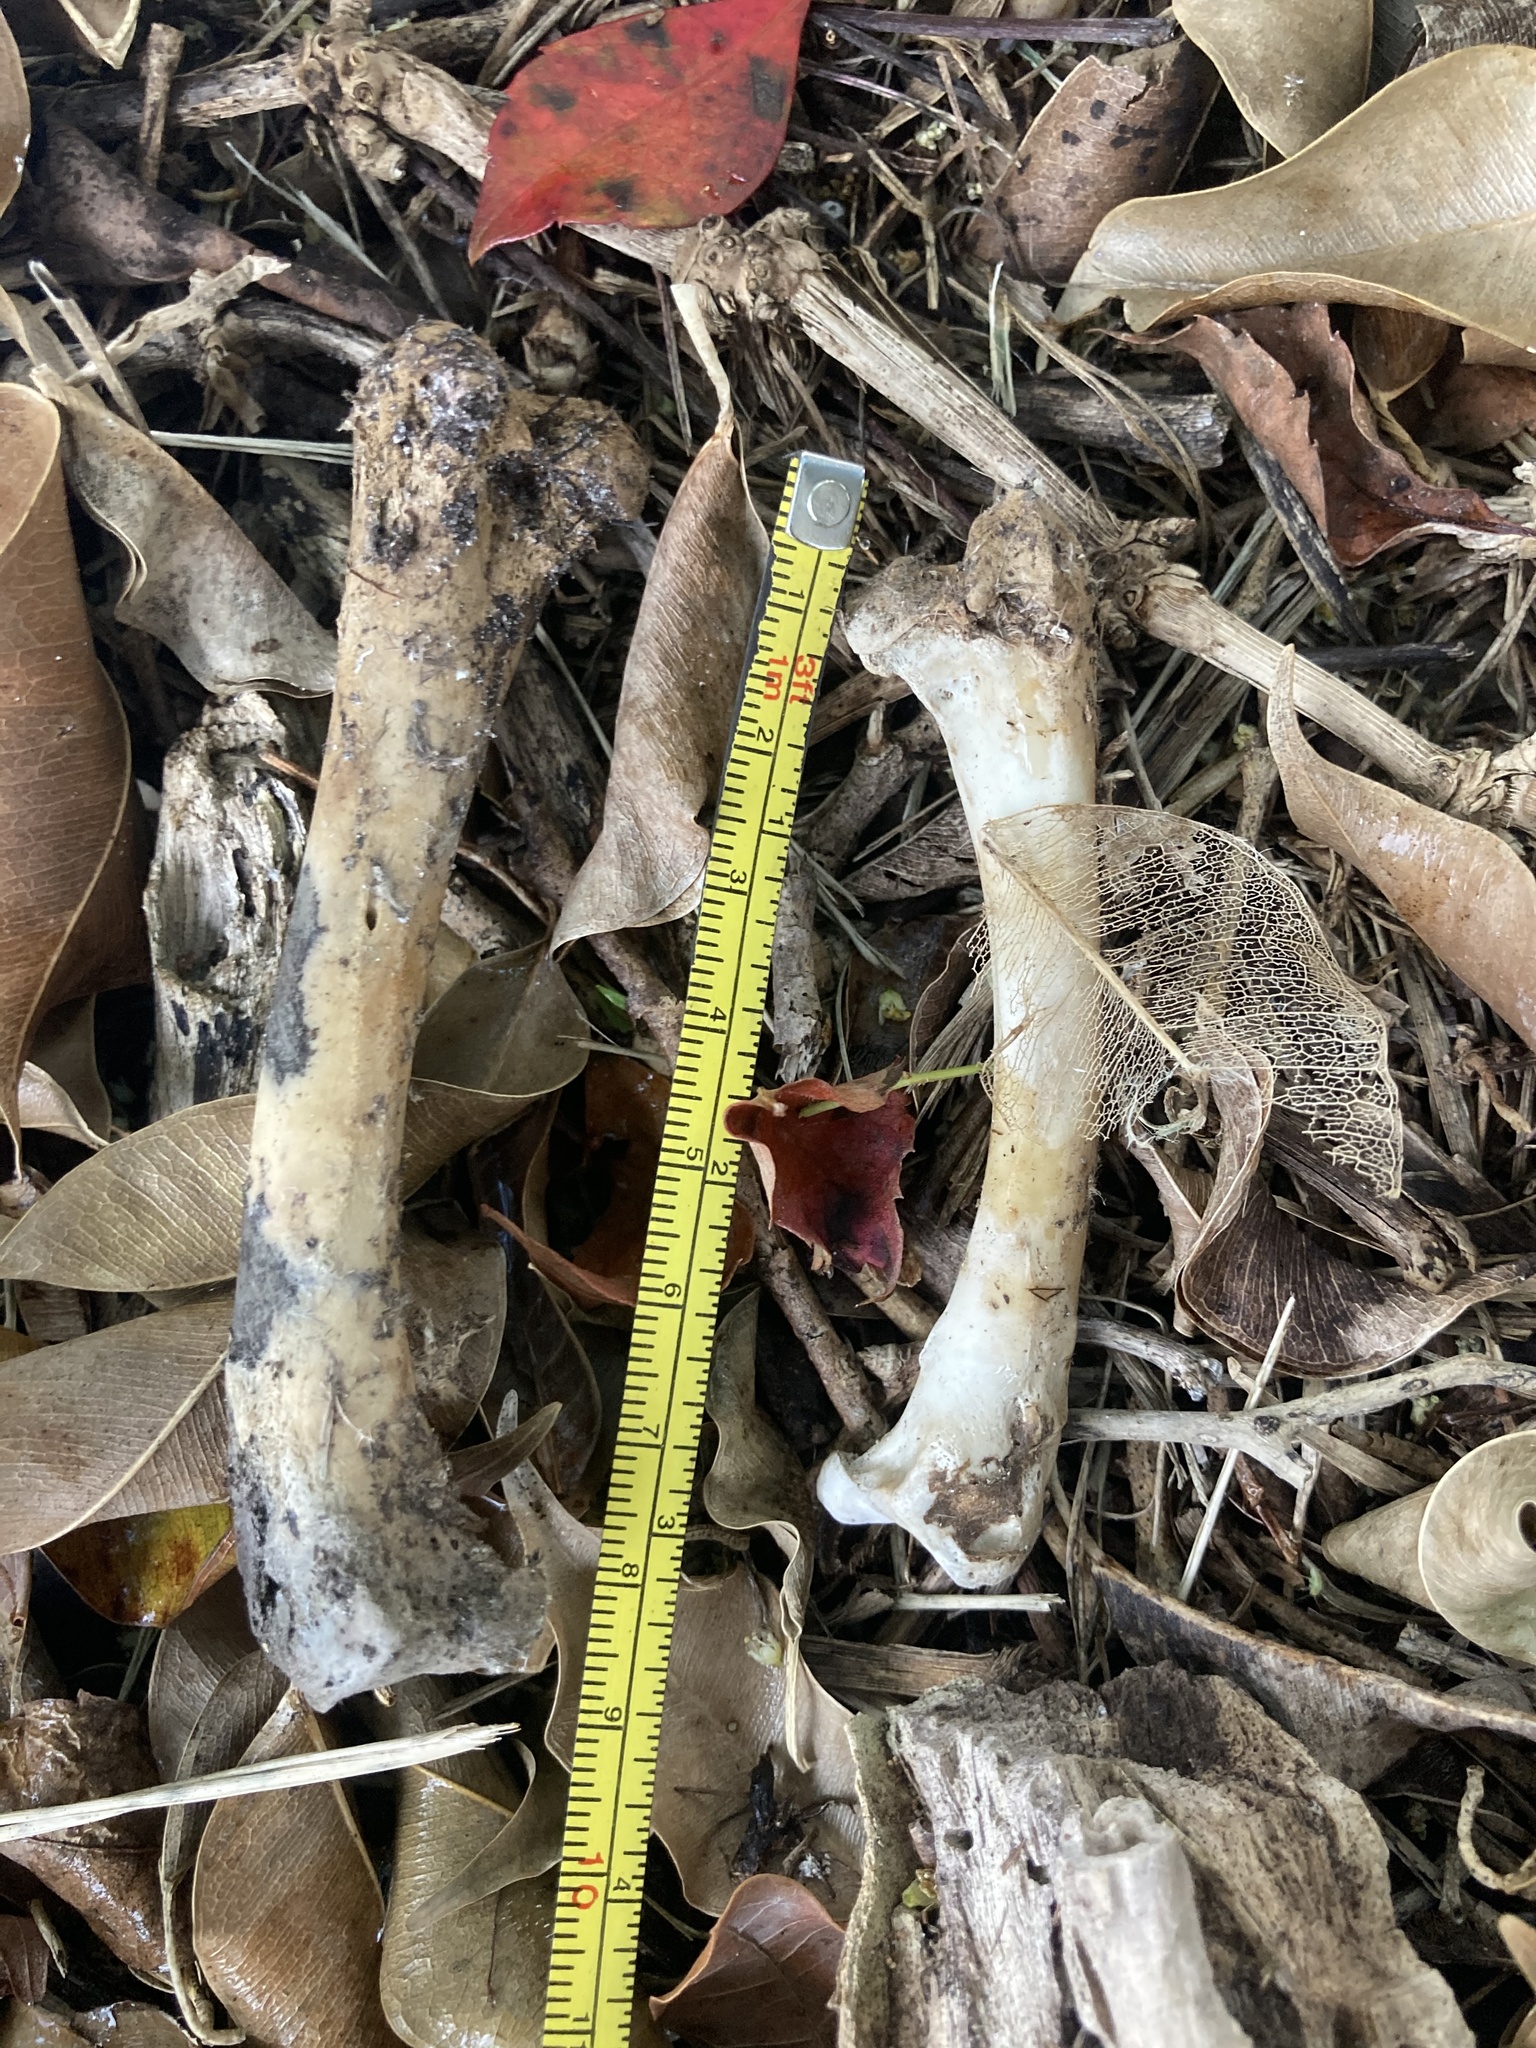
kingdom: Animalia
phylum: Chordata
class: Aves
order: Galliformes
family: Phasianidae
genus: Gallus
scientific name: Gallus gallus
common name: Red junglefowl
